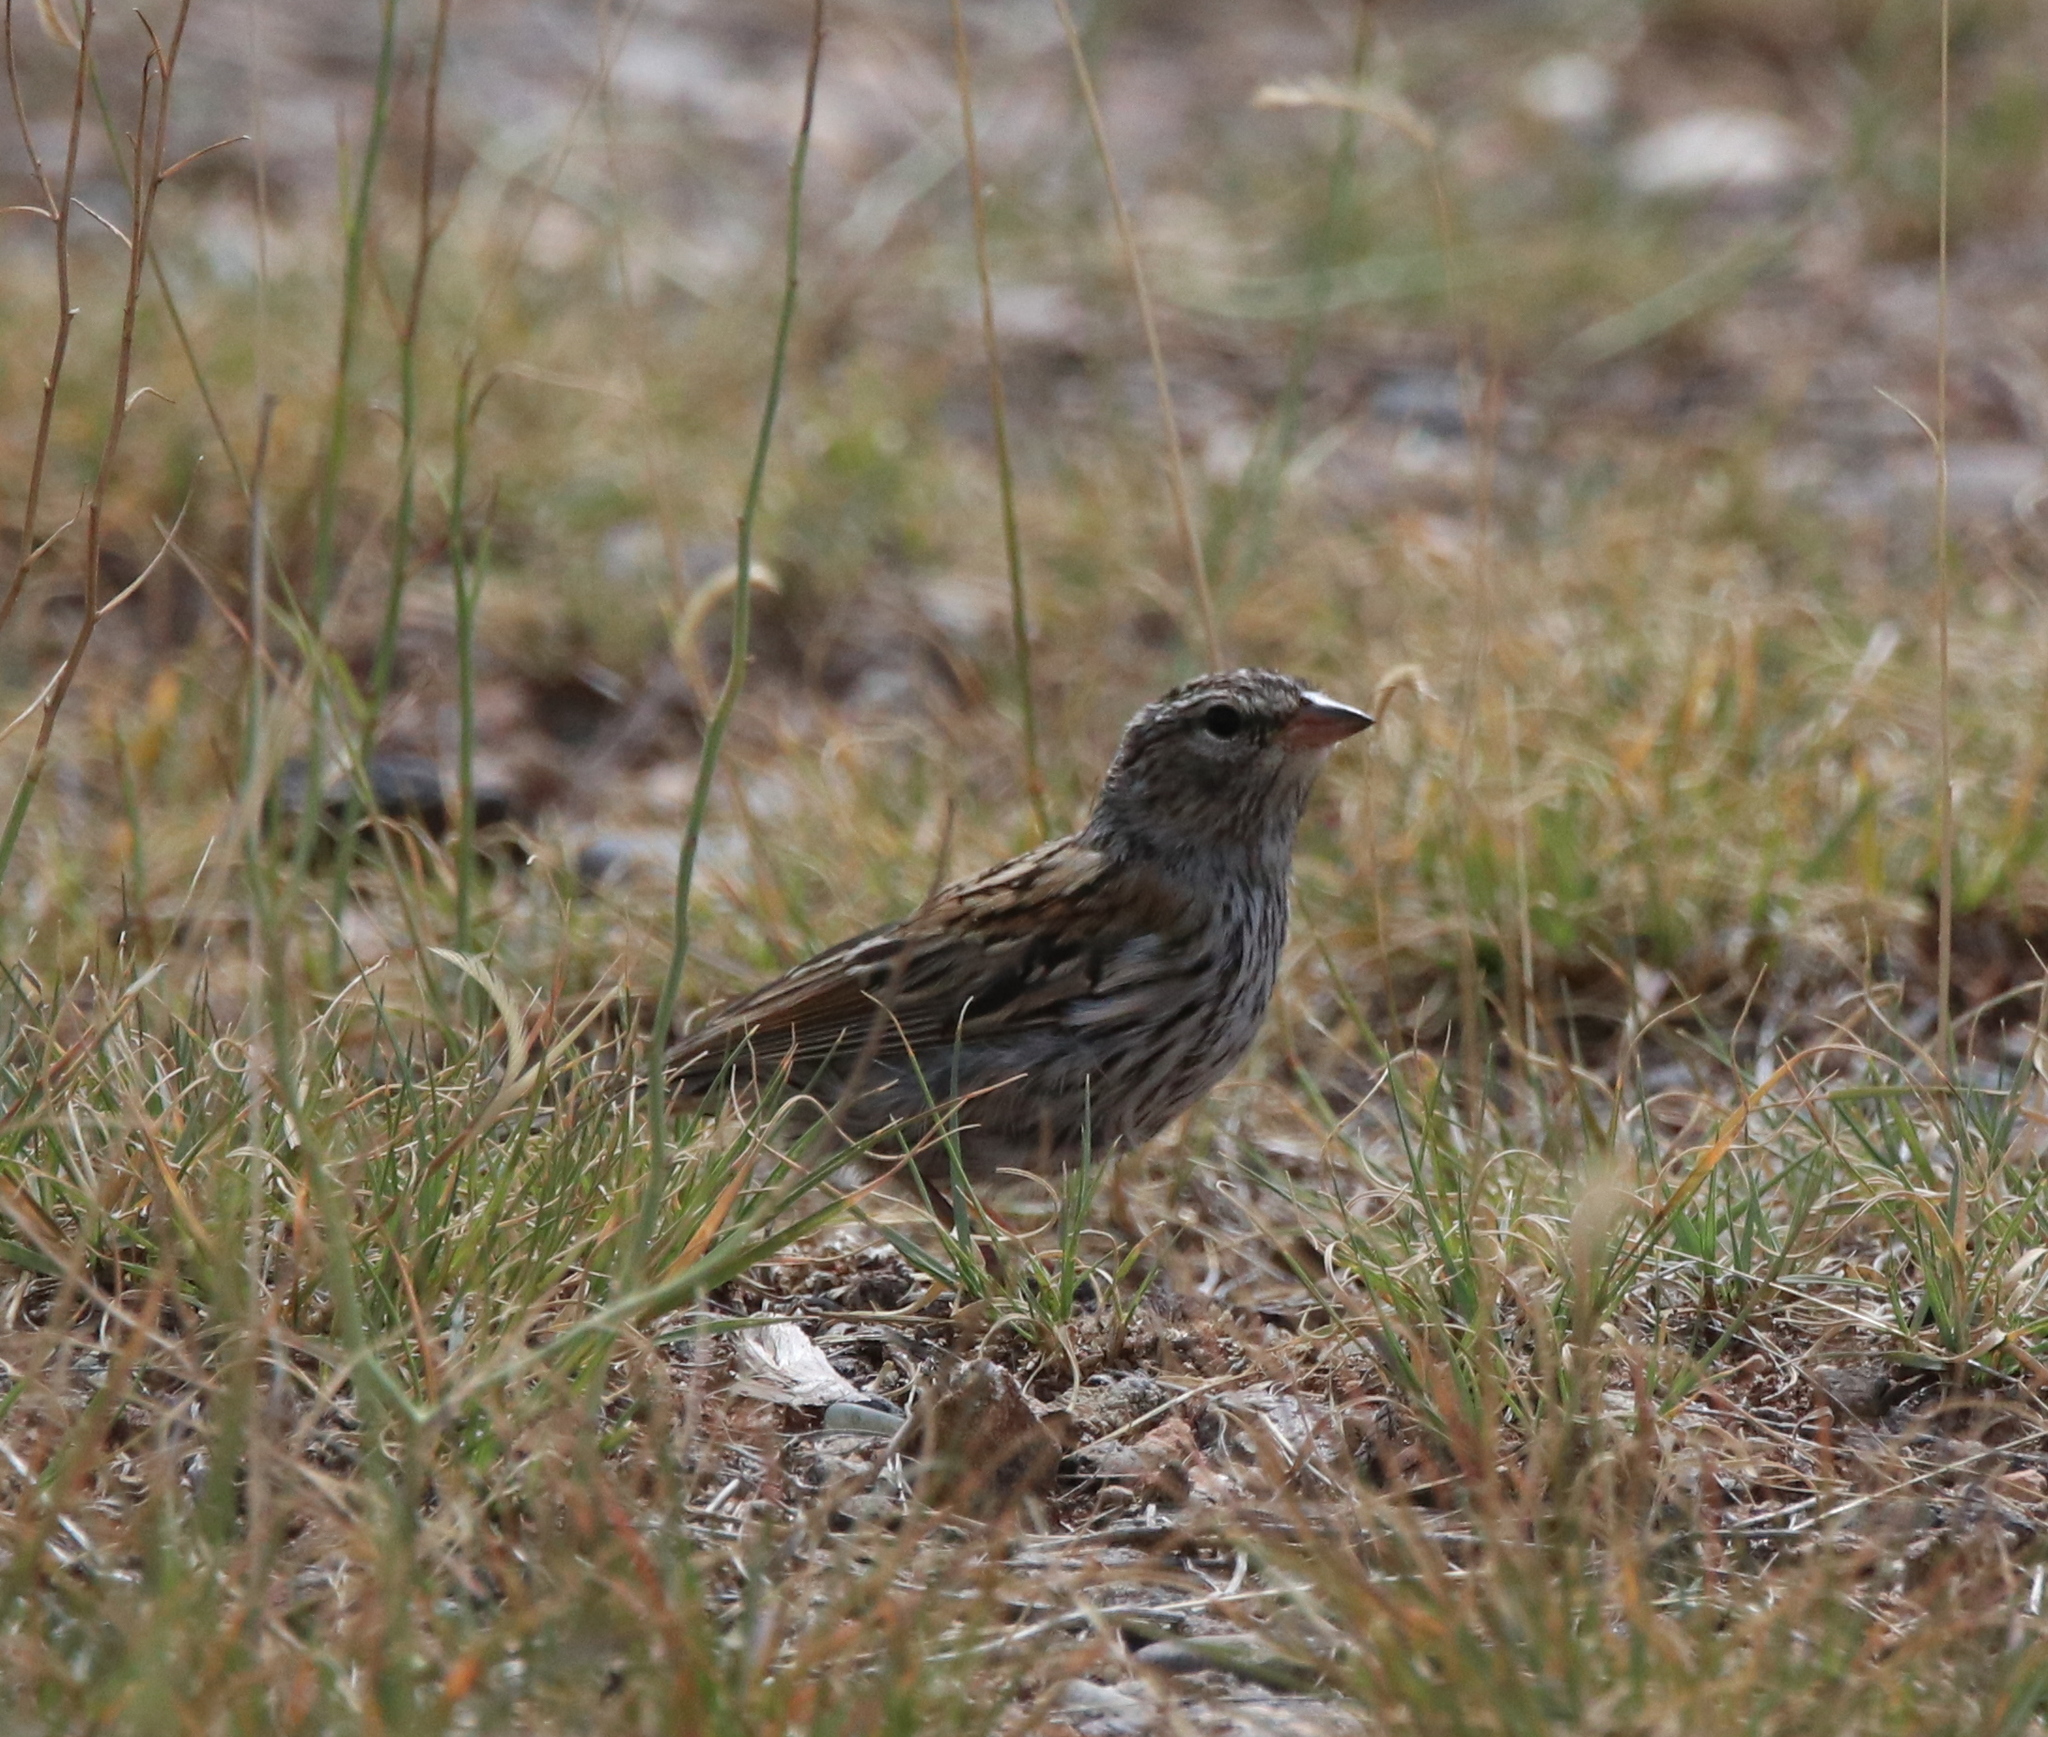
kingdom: Animalia
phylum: Chordata
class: Aves
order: Passeriformes
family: Passerellidae
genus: Spizella
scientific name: Spizella passerina
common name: Chipping sparrow
